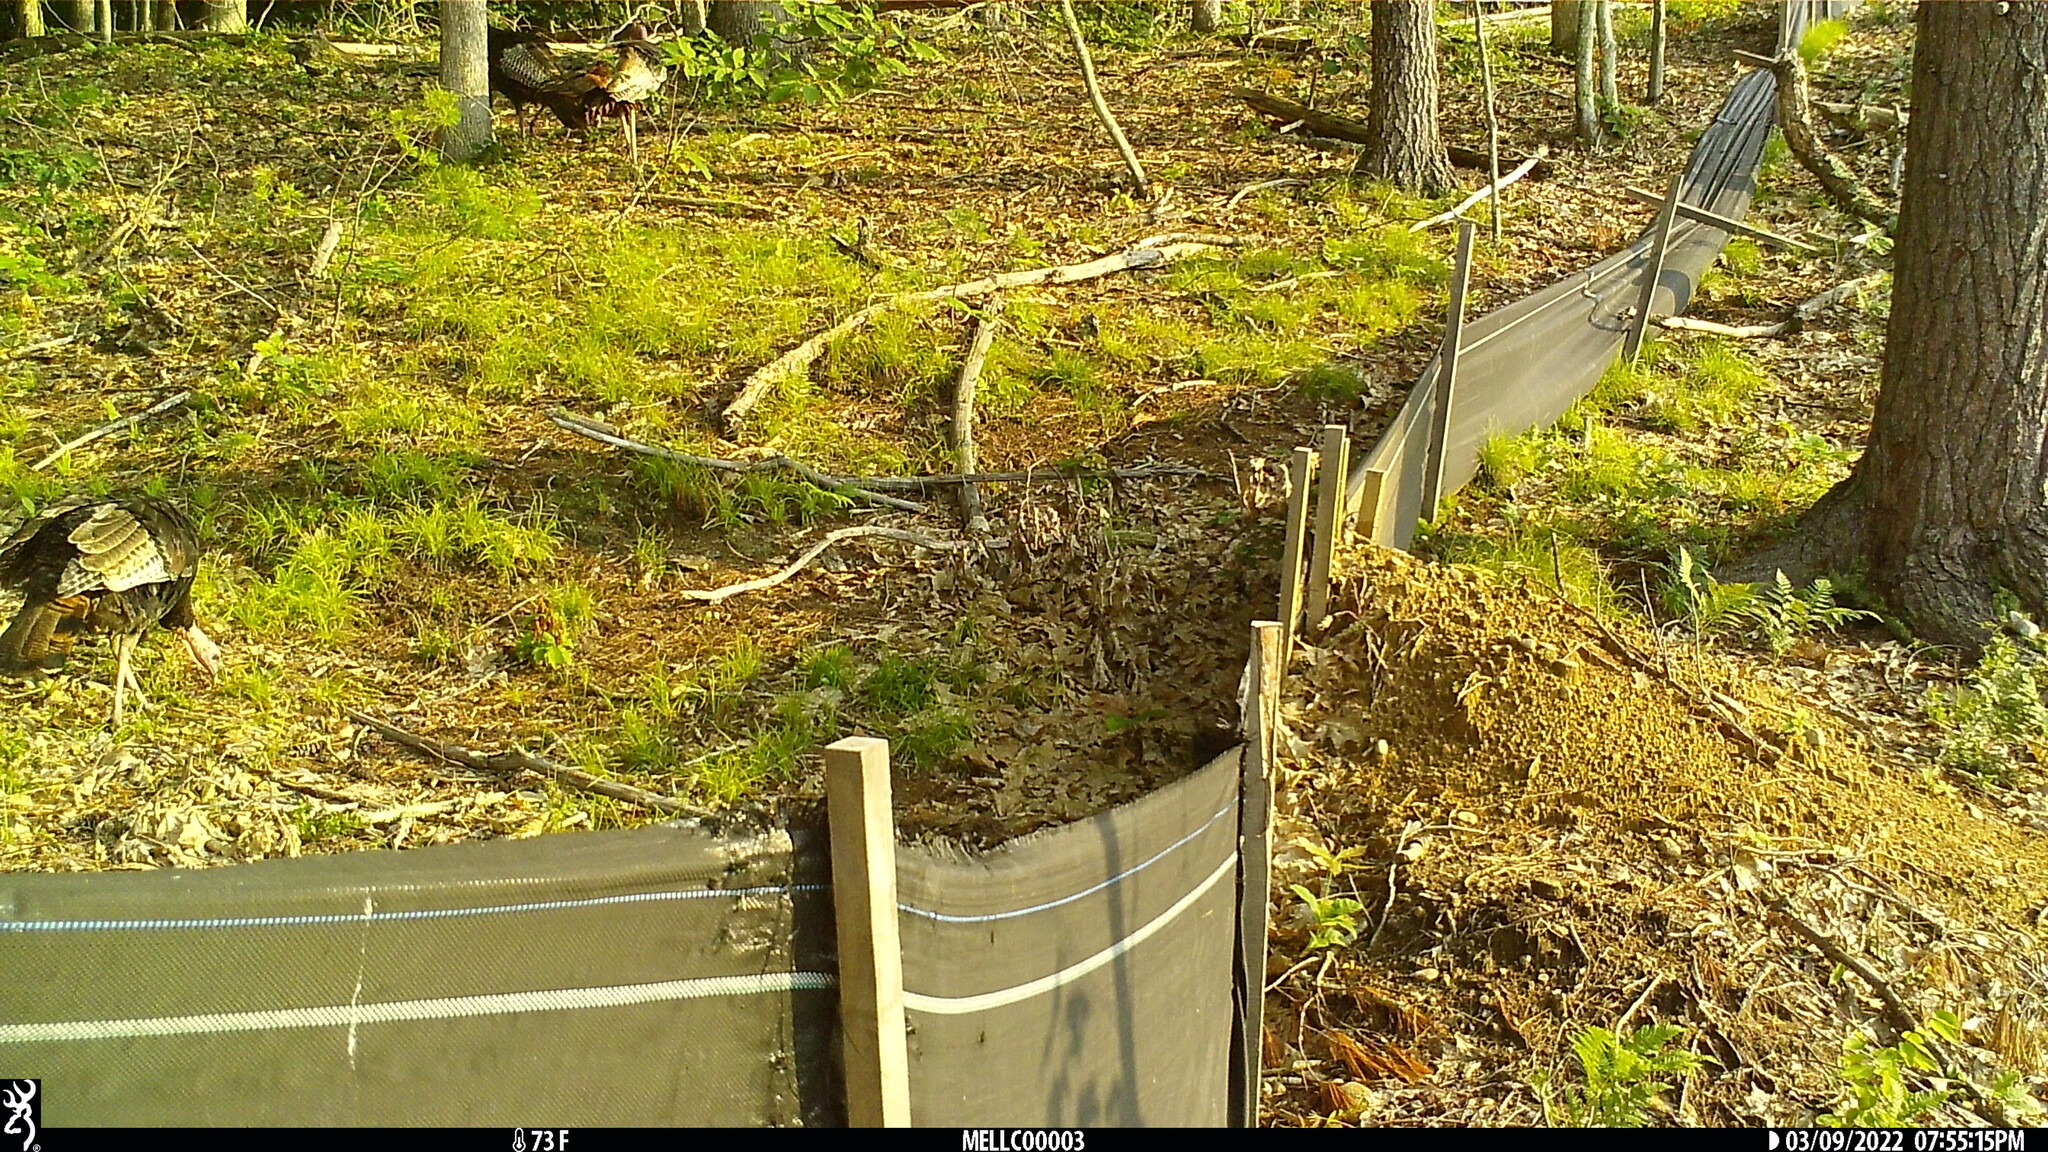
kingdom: Animalia
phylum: Chordata
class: Aves
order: Galliformes
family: Phasianidae
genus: Meleagris
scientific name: Meleagris gallopavo
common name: Wild turkey
